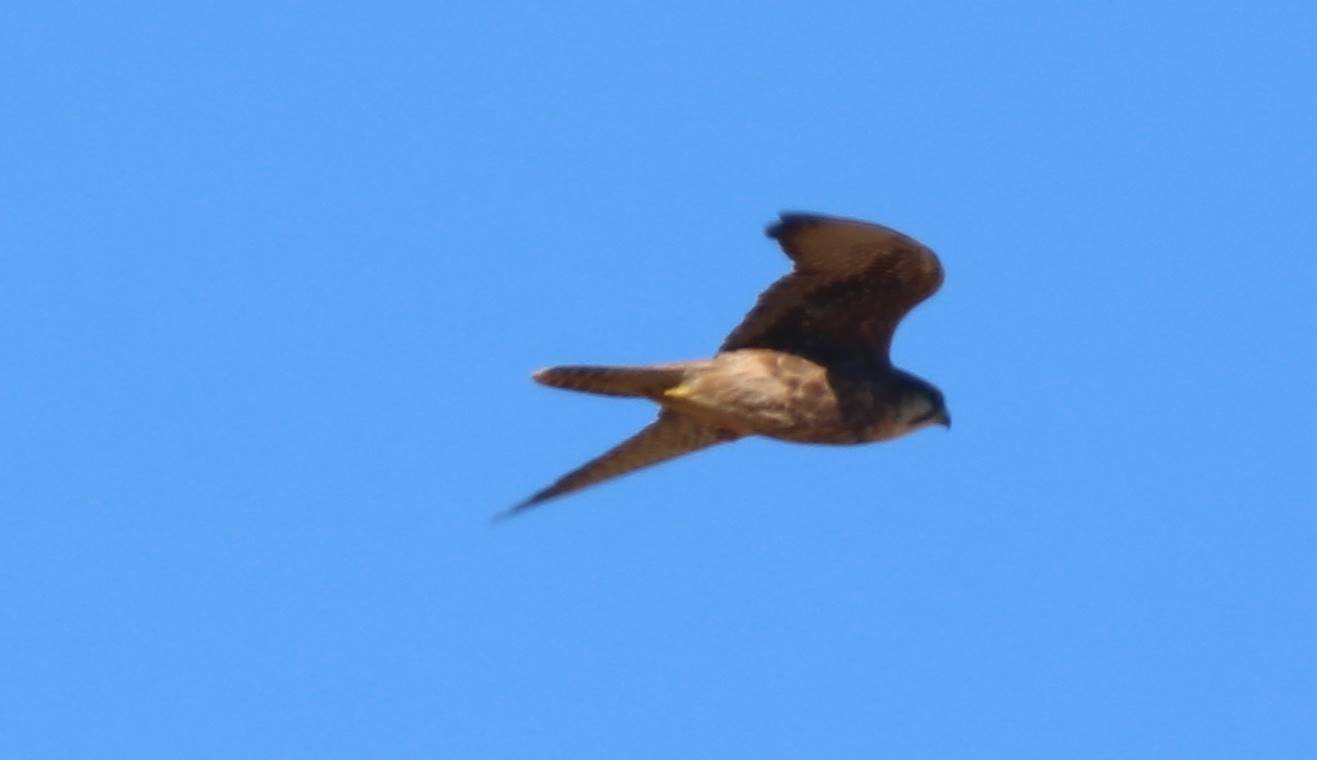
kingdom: Animalia
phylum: Chordata
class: Aves
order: Falconiformes
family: Falconidae
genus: Falco
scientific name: Falco biarmicus
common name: Lanner falcon
